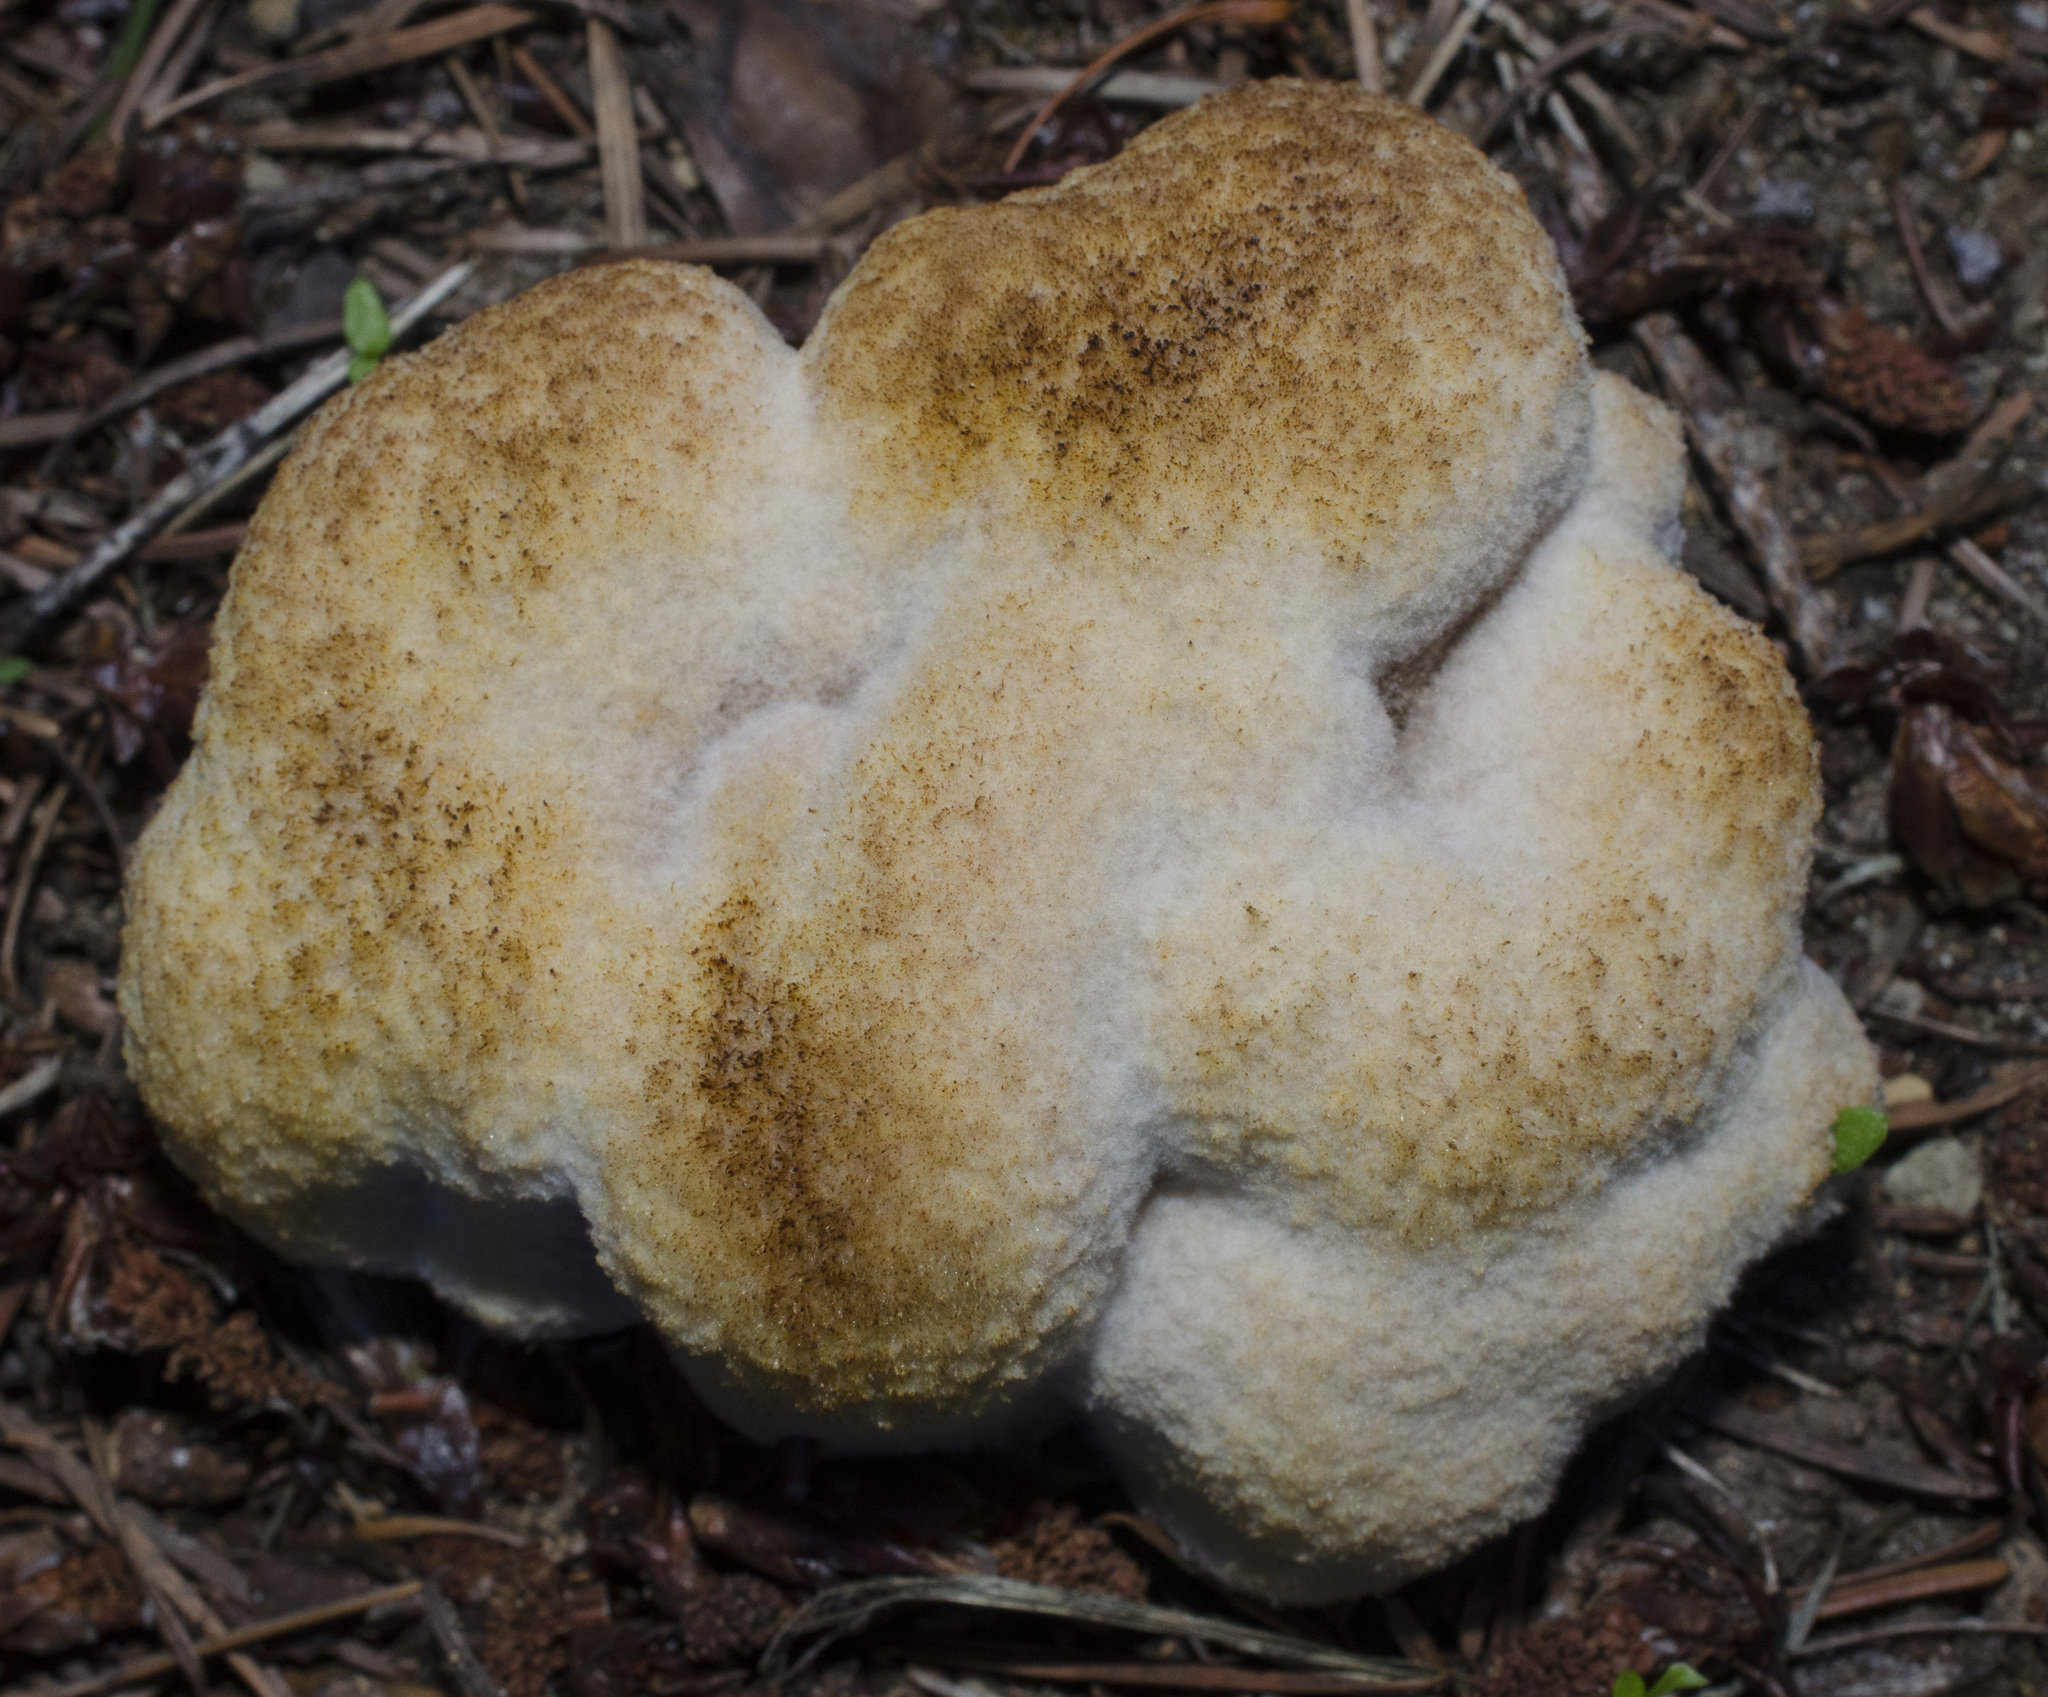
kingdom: Fungi
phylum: Basidiomycota
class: Agaricomycetes
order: Polyporales
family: Laetiporaceae
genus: Phaeolus
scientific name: Phaeolus schweinitzii
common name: Dyer's mazegill
